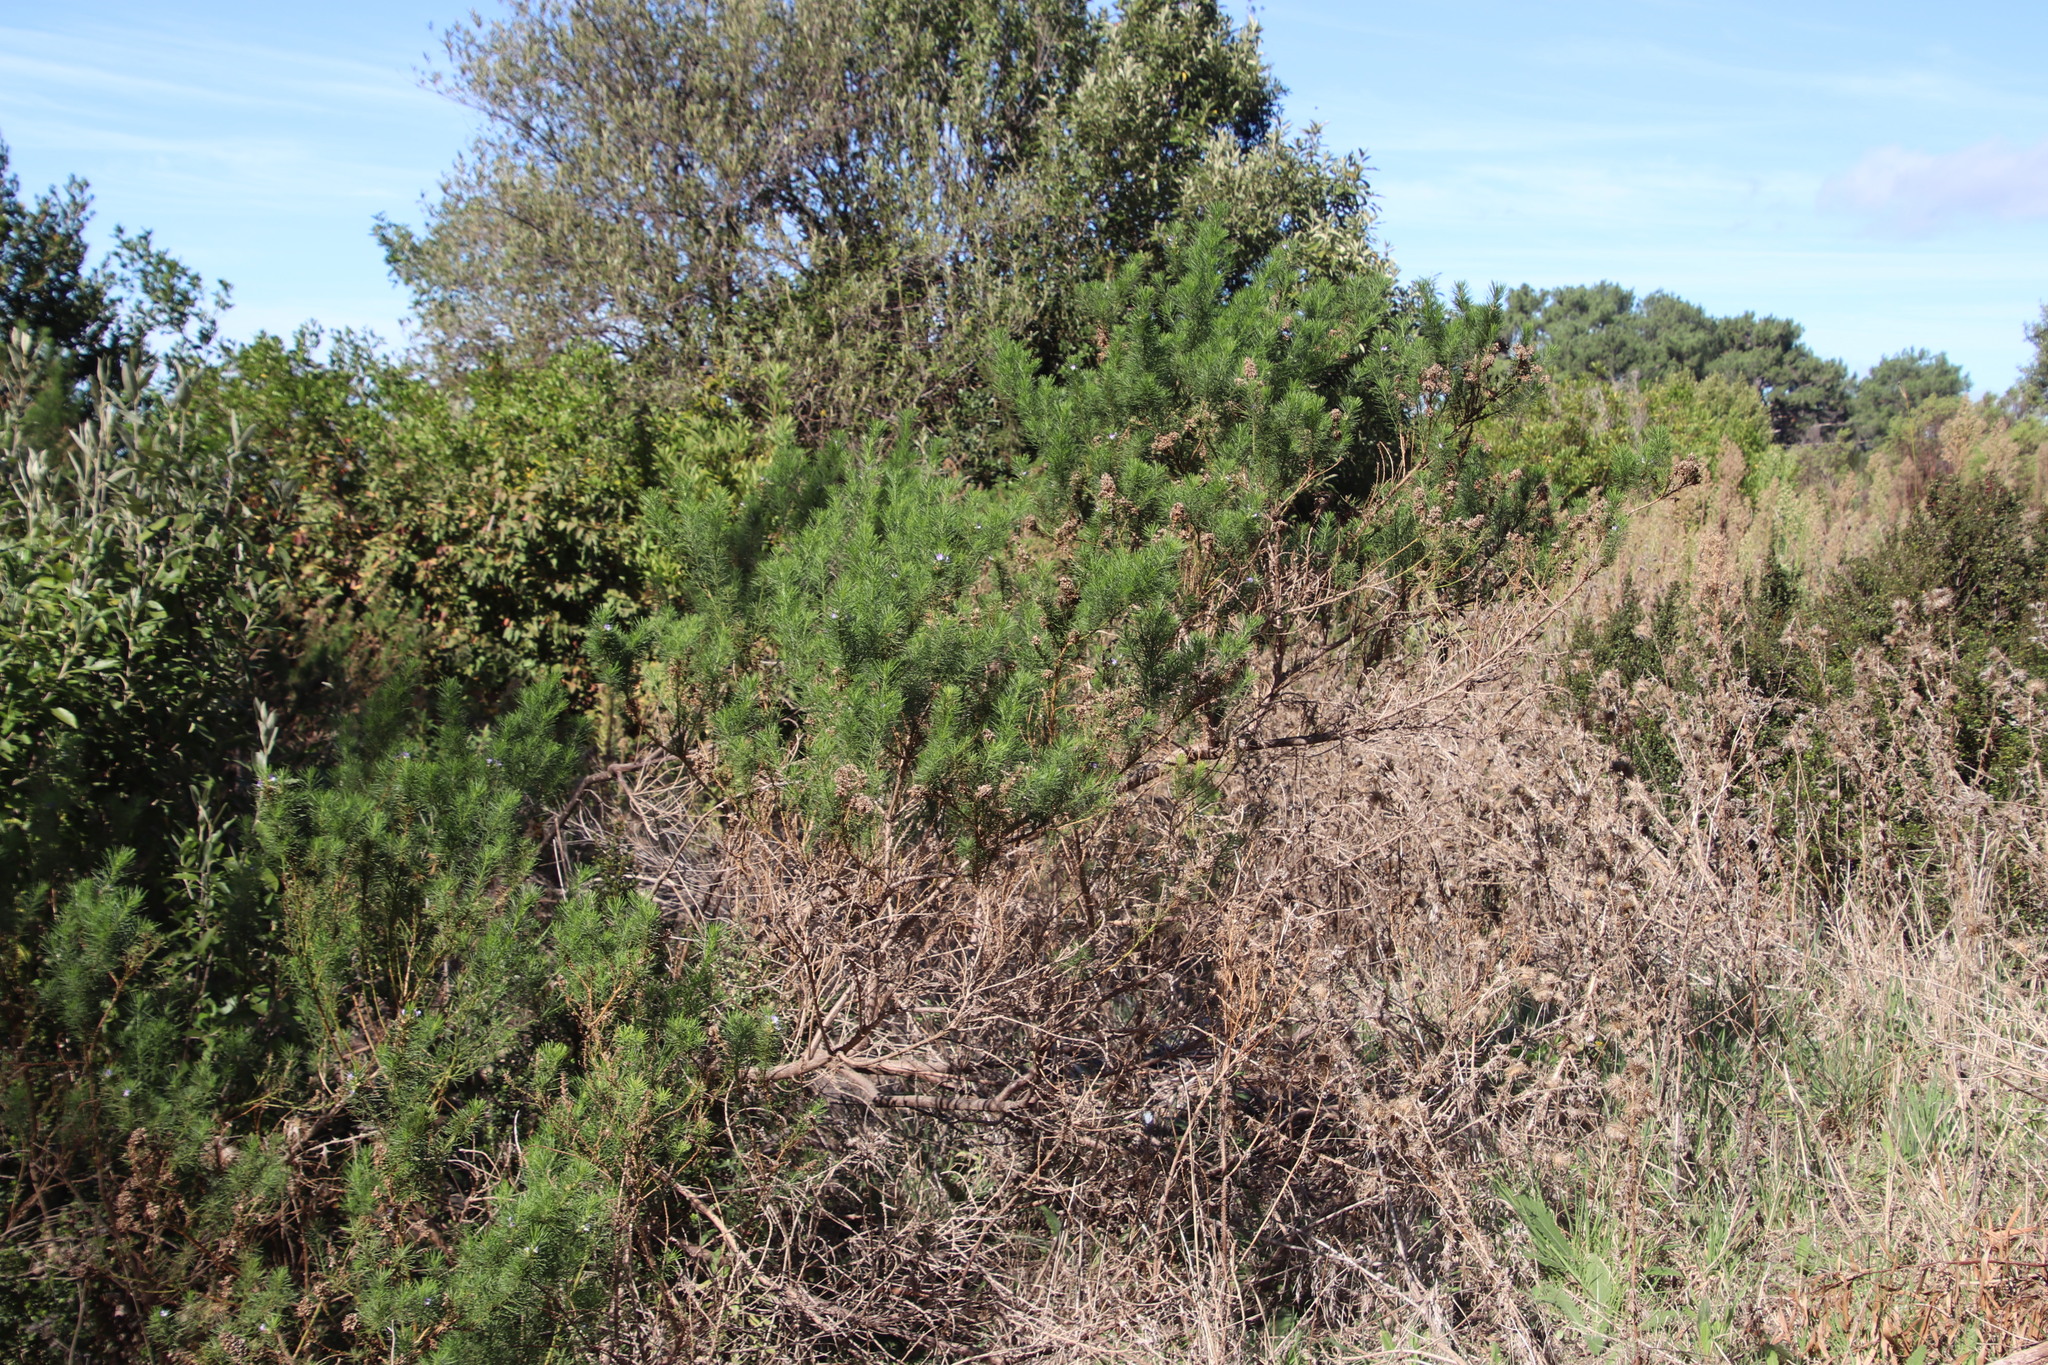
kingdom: Plantae
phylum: Tracheophyta
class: Magnoliopsida
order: Fabales
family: Fabaceae
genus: Psoralea
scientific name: Psoralea pinnata
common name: African scurfpea
